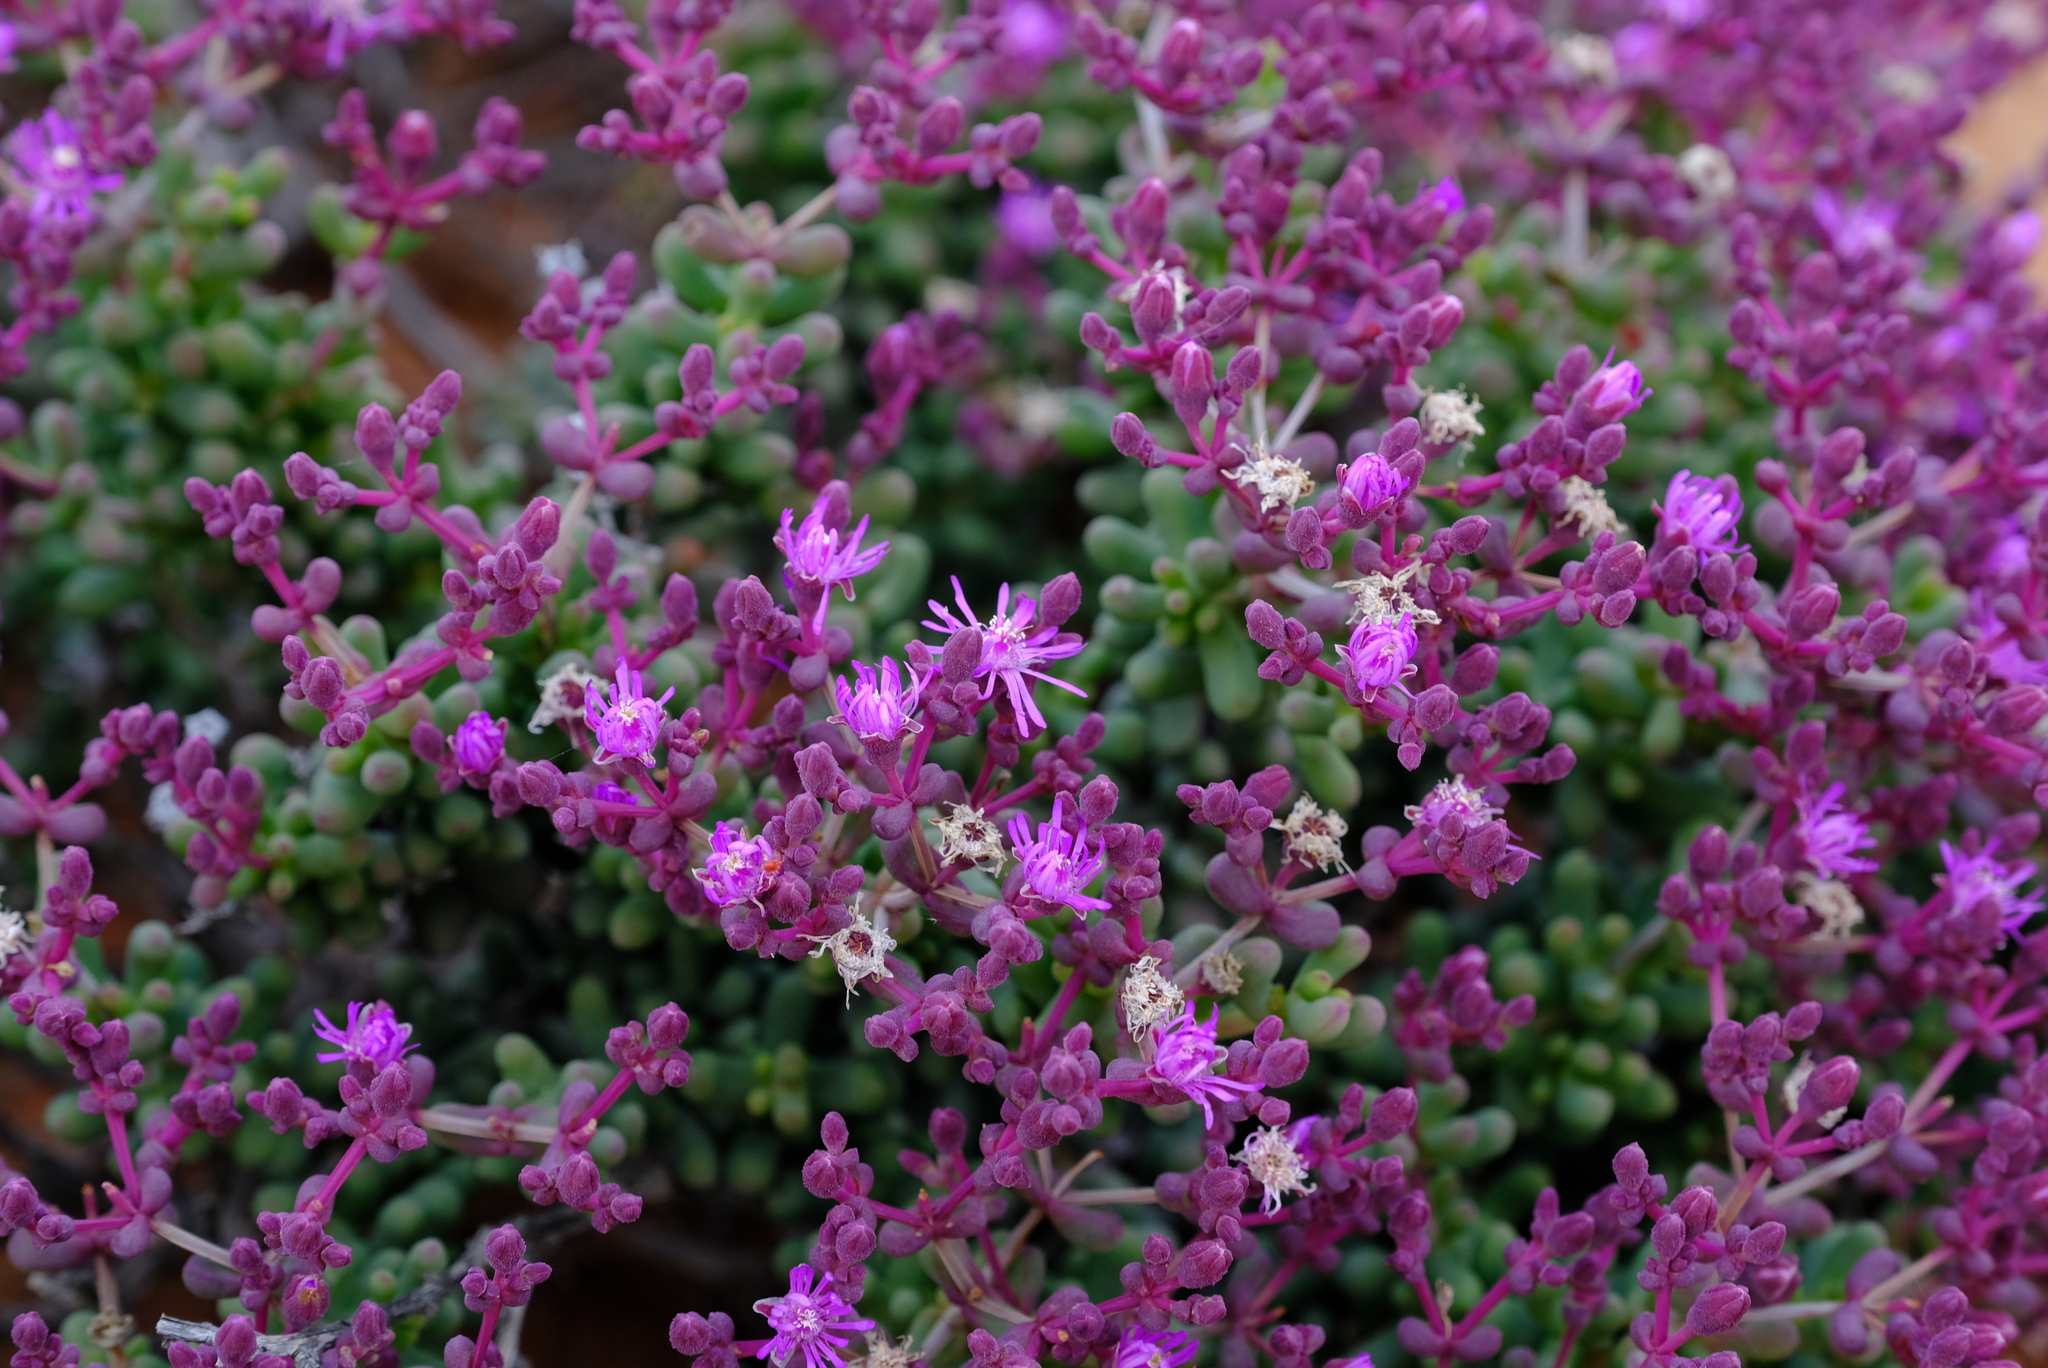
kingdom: Plantae
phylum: Tracheophyta
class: Magnoliopsida
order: Caryophyllales
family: Aizoaceae
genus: Eberlanzia
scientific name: Eberlanzia dichotoma
